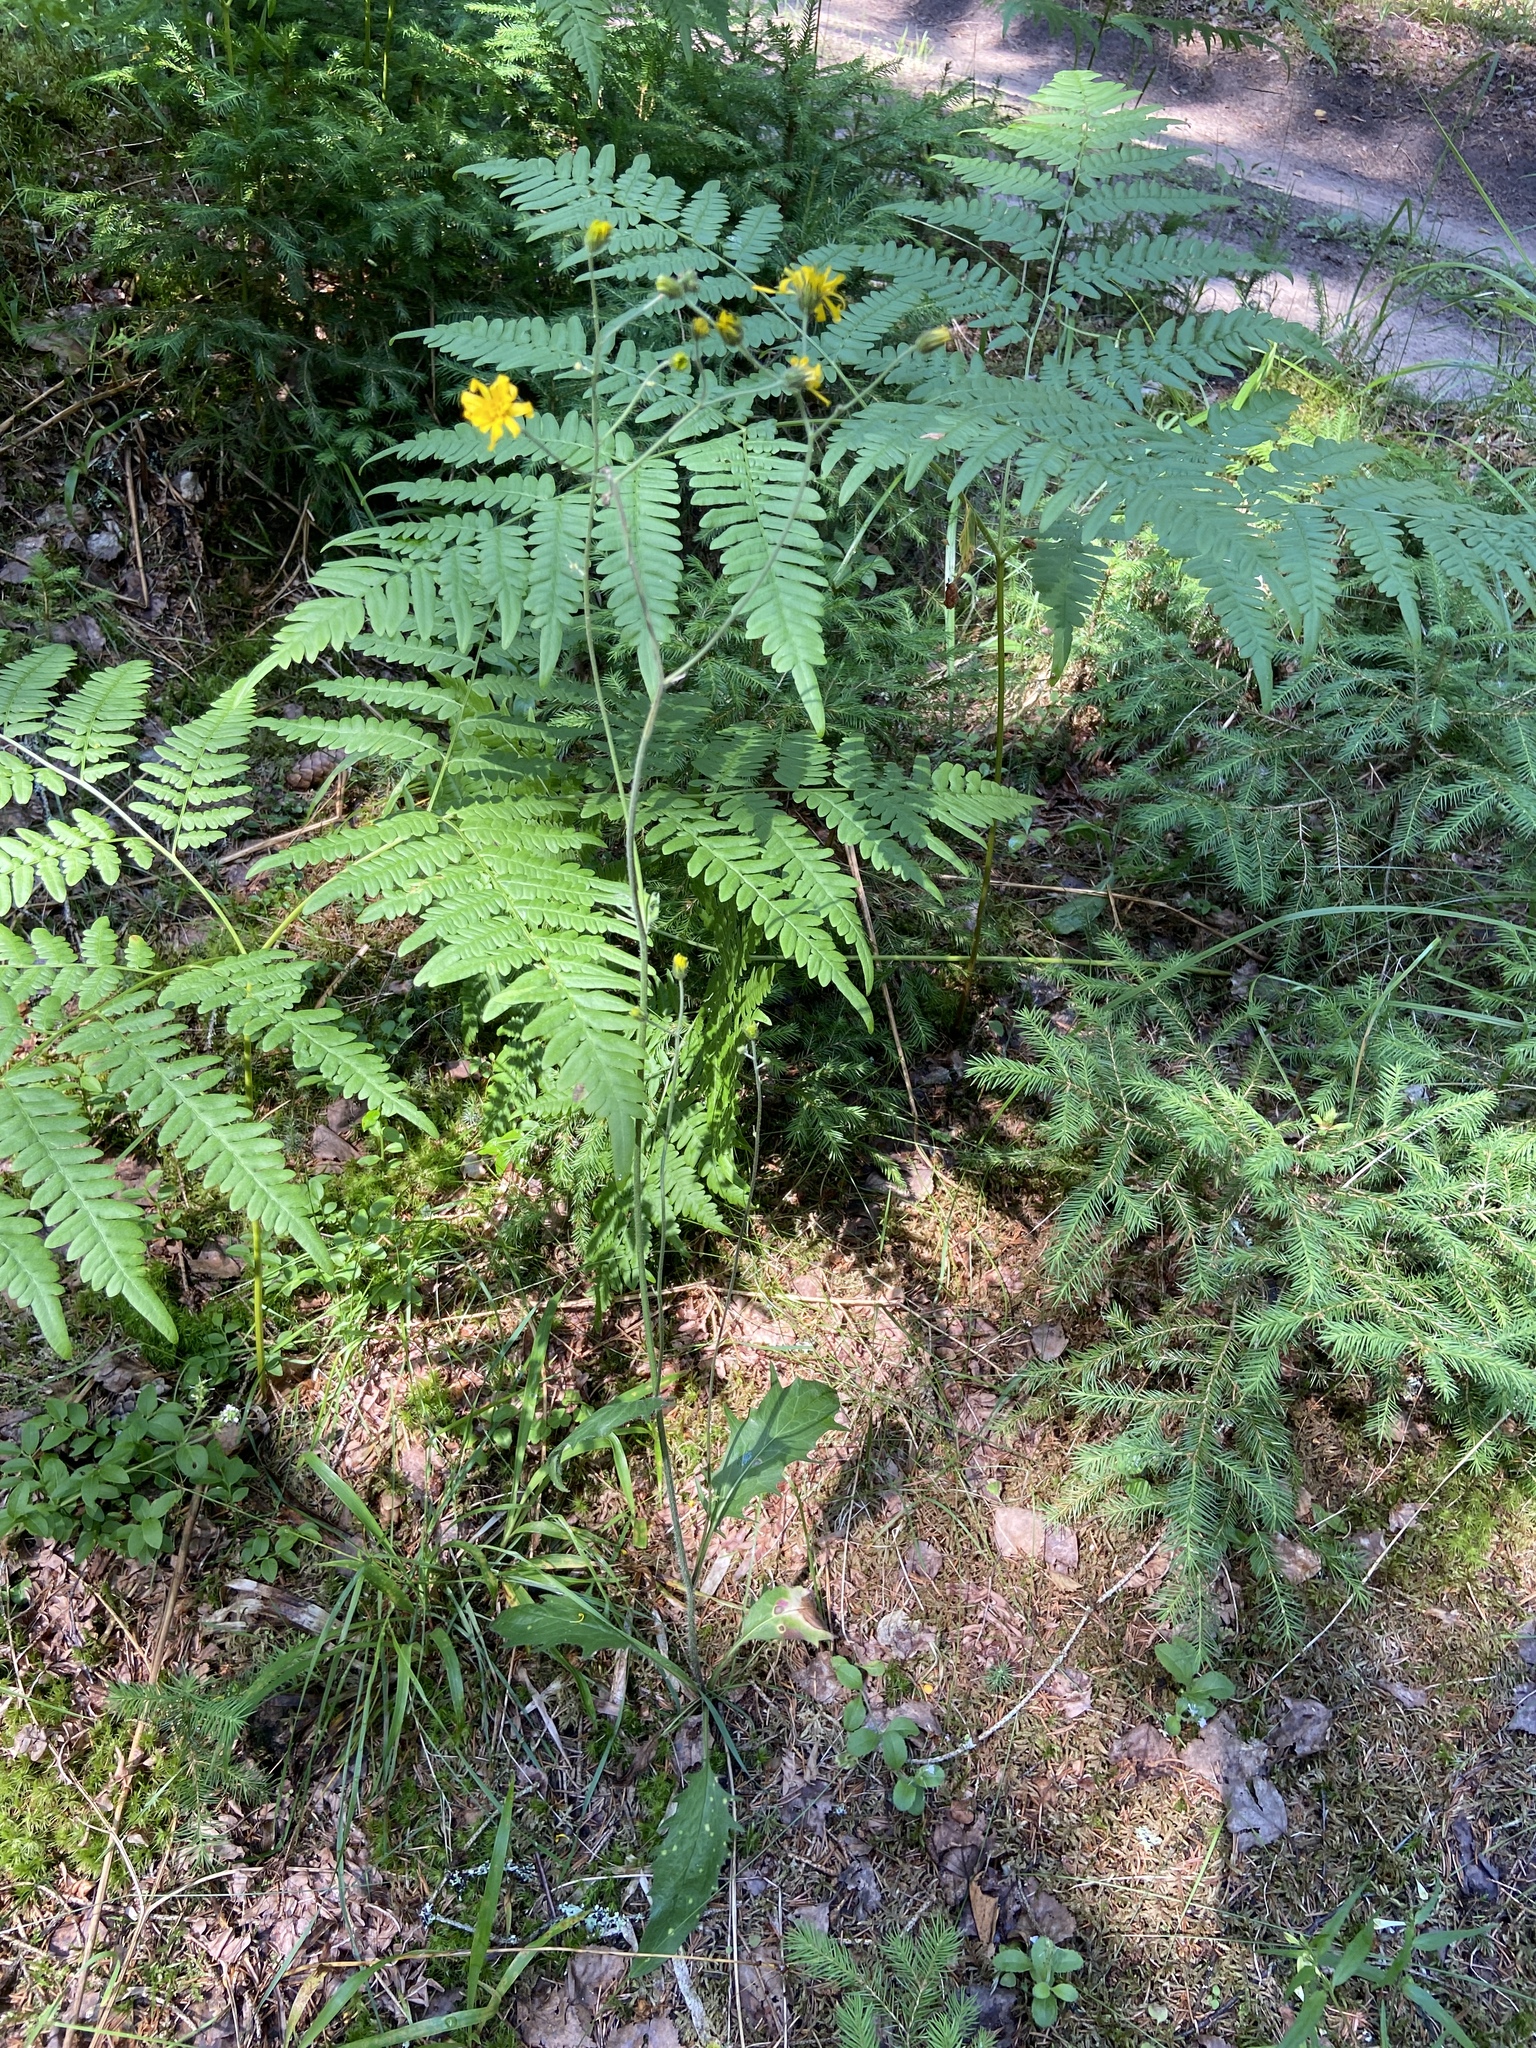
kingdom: Plantae
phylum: Tracheophyta
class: Polypodiopsida
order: Polypodiales
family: Dennstaedtiaceae
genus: Pteridium
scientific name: Pteridium aquilinum
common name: Bracken
